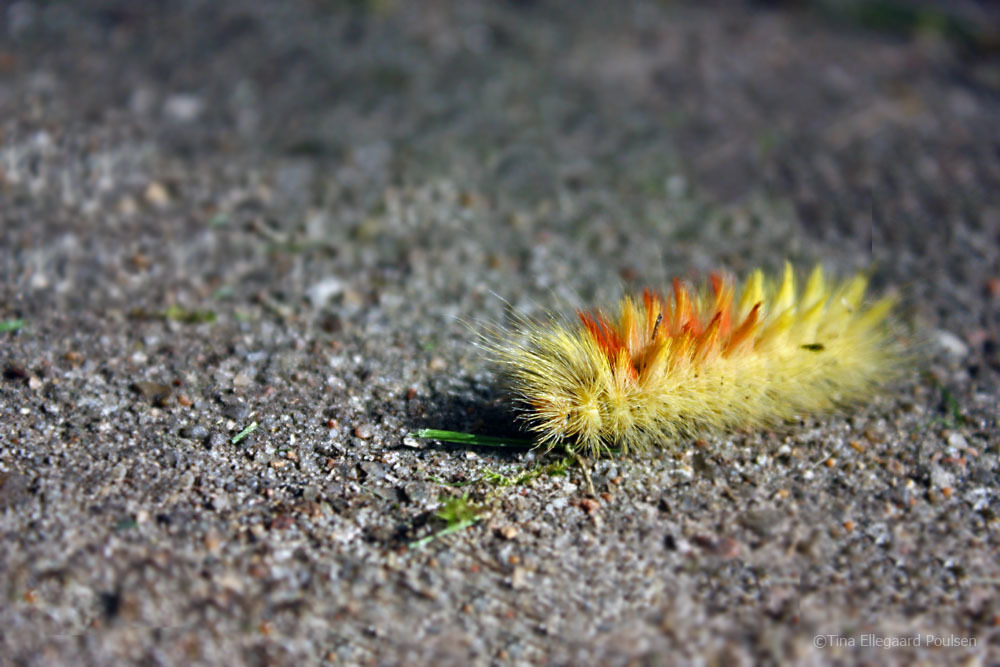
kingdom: Animalia
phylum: Arthropoda
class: Insecta
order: Lepidoptera
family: Noctuidae
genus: Acronicta
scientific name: Acronicta aceris
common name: Sycamore
